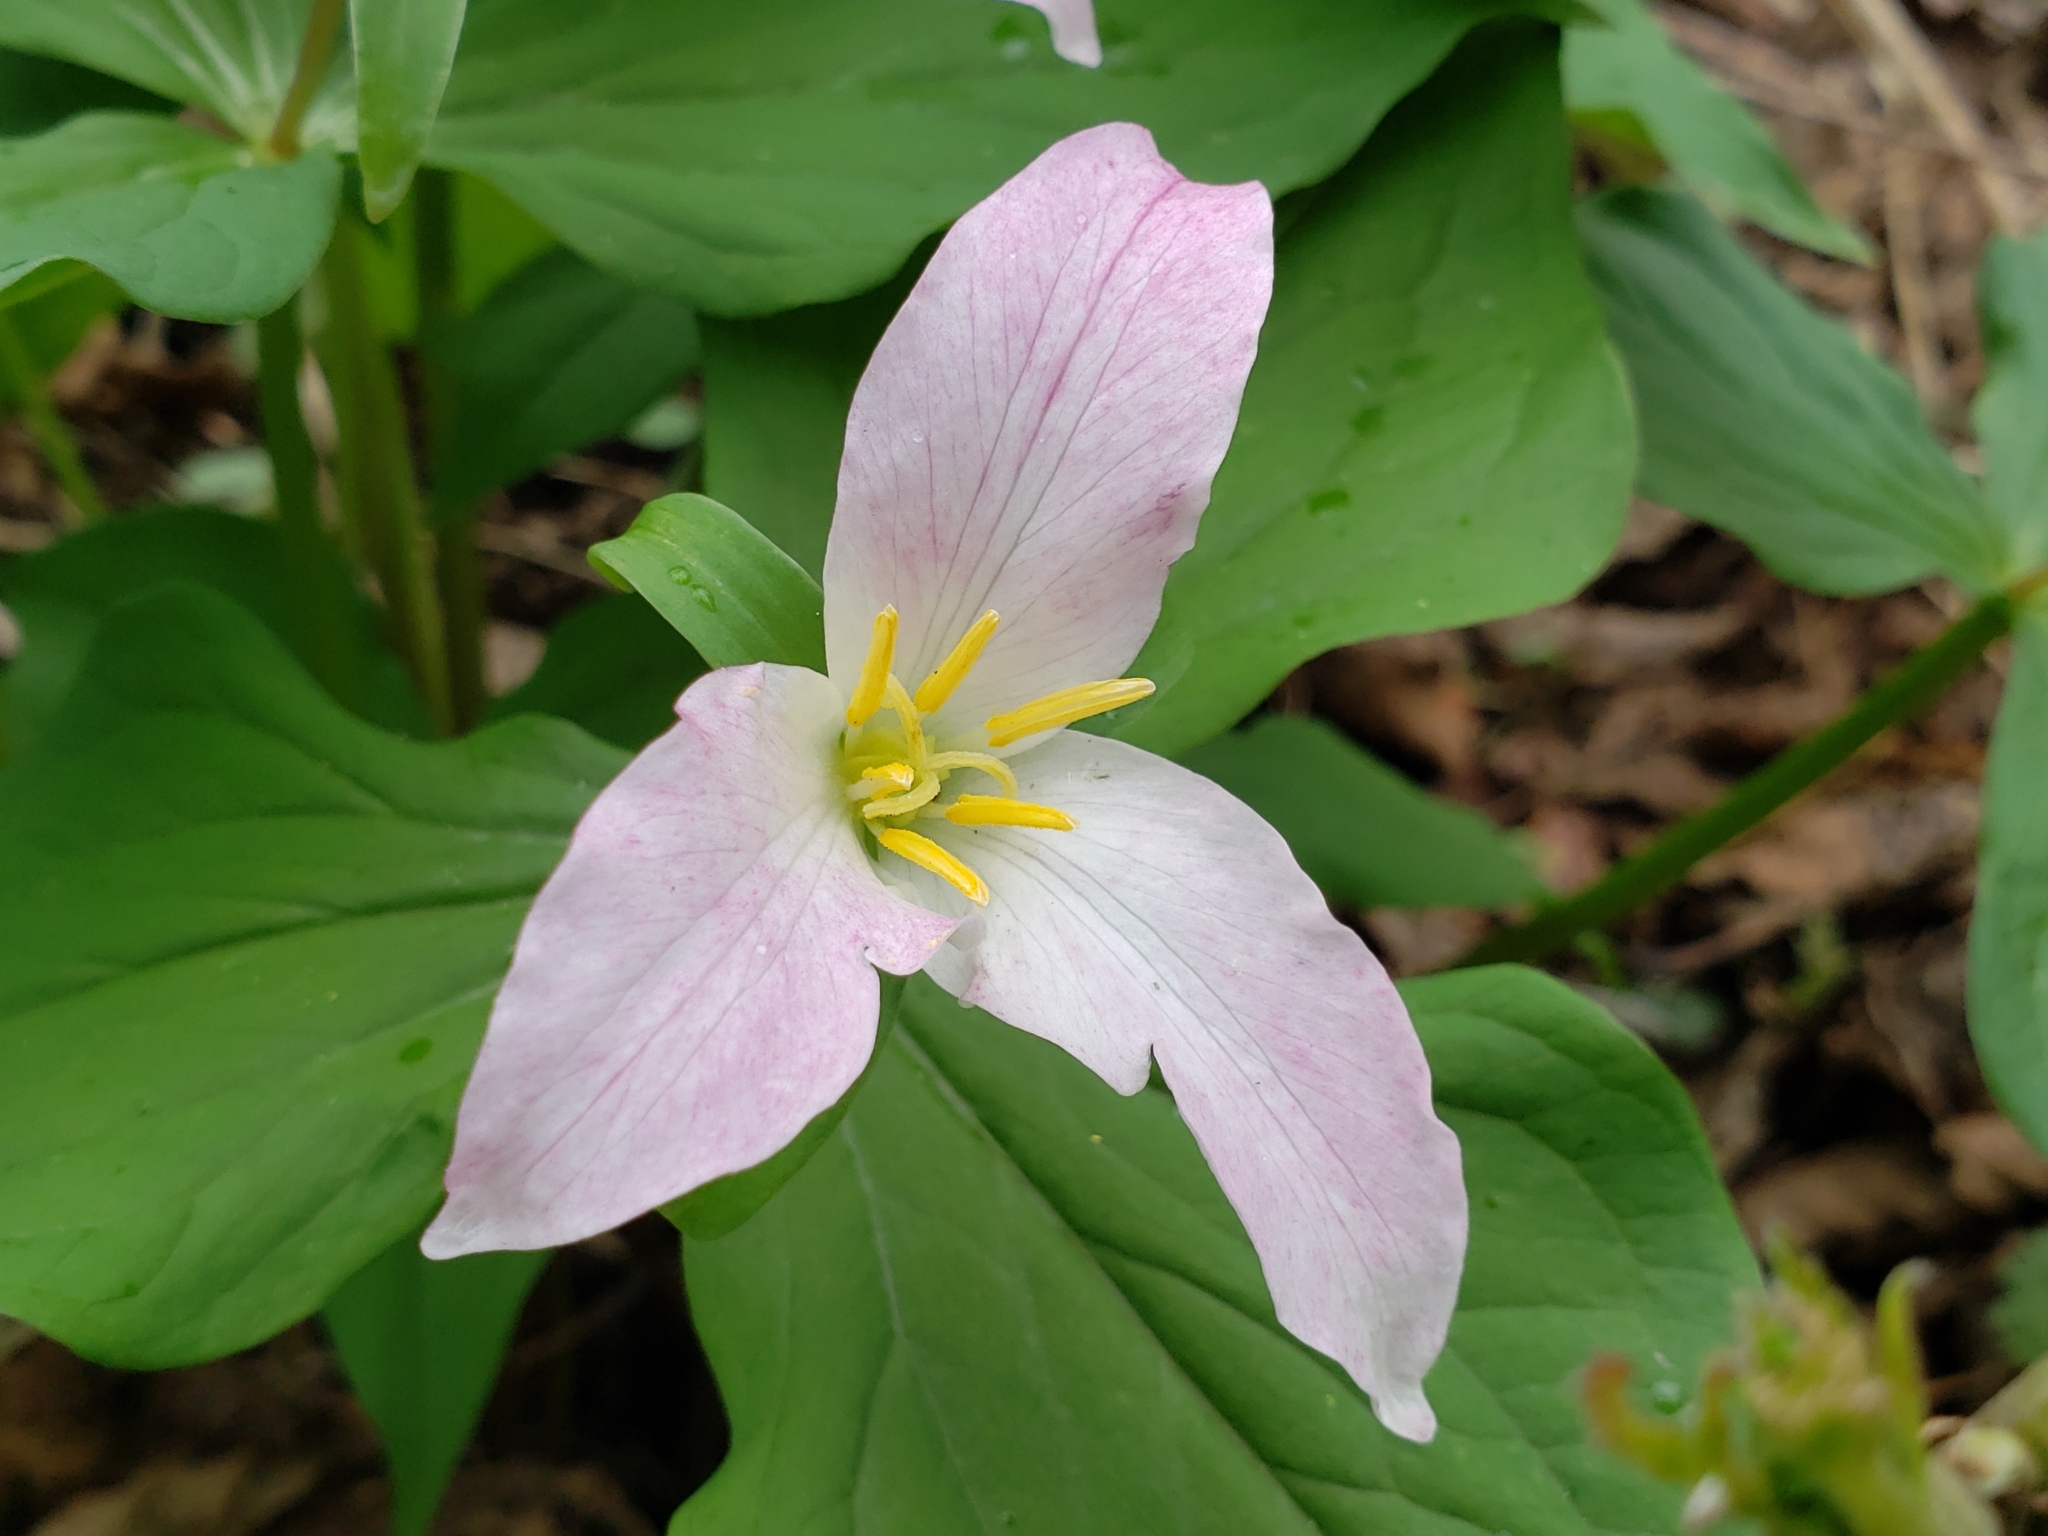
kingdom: Plantae
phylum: Tracheophyta
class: Liliopsida
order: Liliales
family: Melanthiaceae
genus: Trillium
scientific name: Trillium ovatum
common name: Pacific trillium
